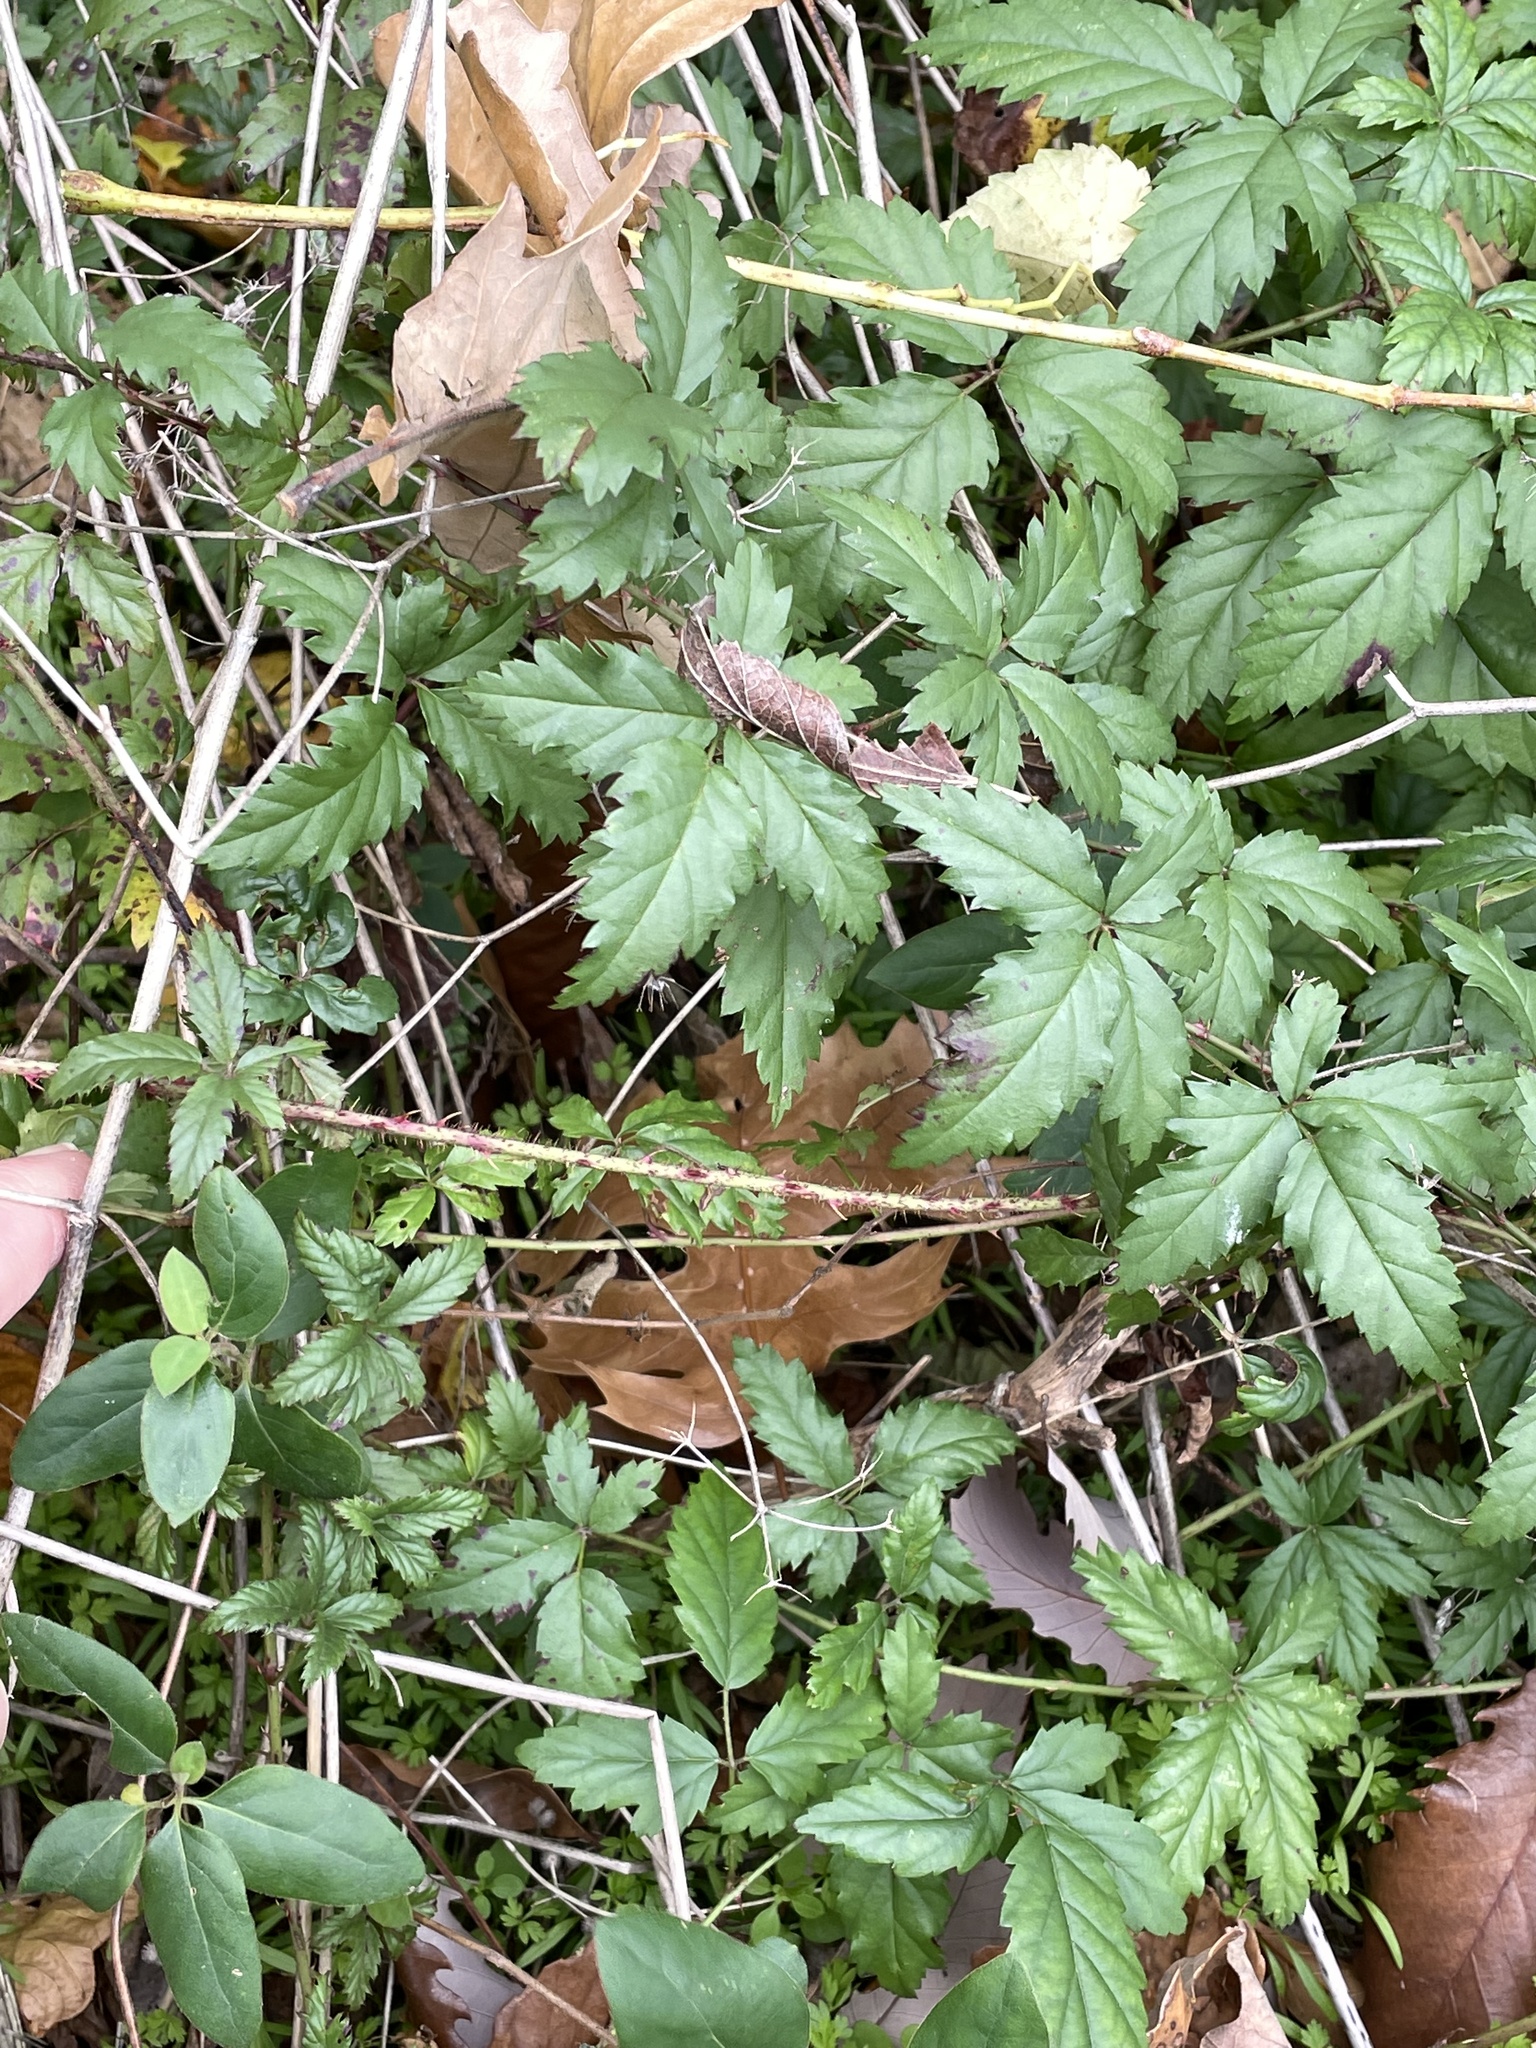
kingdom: Plantae
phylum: Tracheophyta
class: Magnoliopsida
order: Rosales
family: Rosaceae
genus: Rubus
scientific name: Rubus trivialis
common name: Southern dewberry
